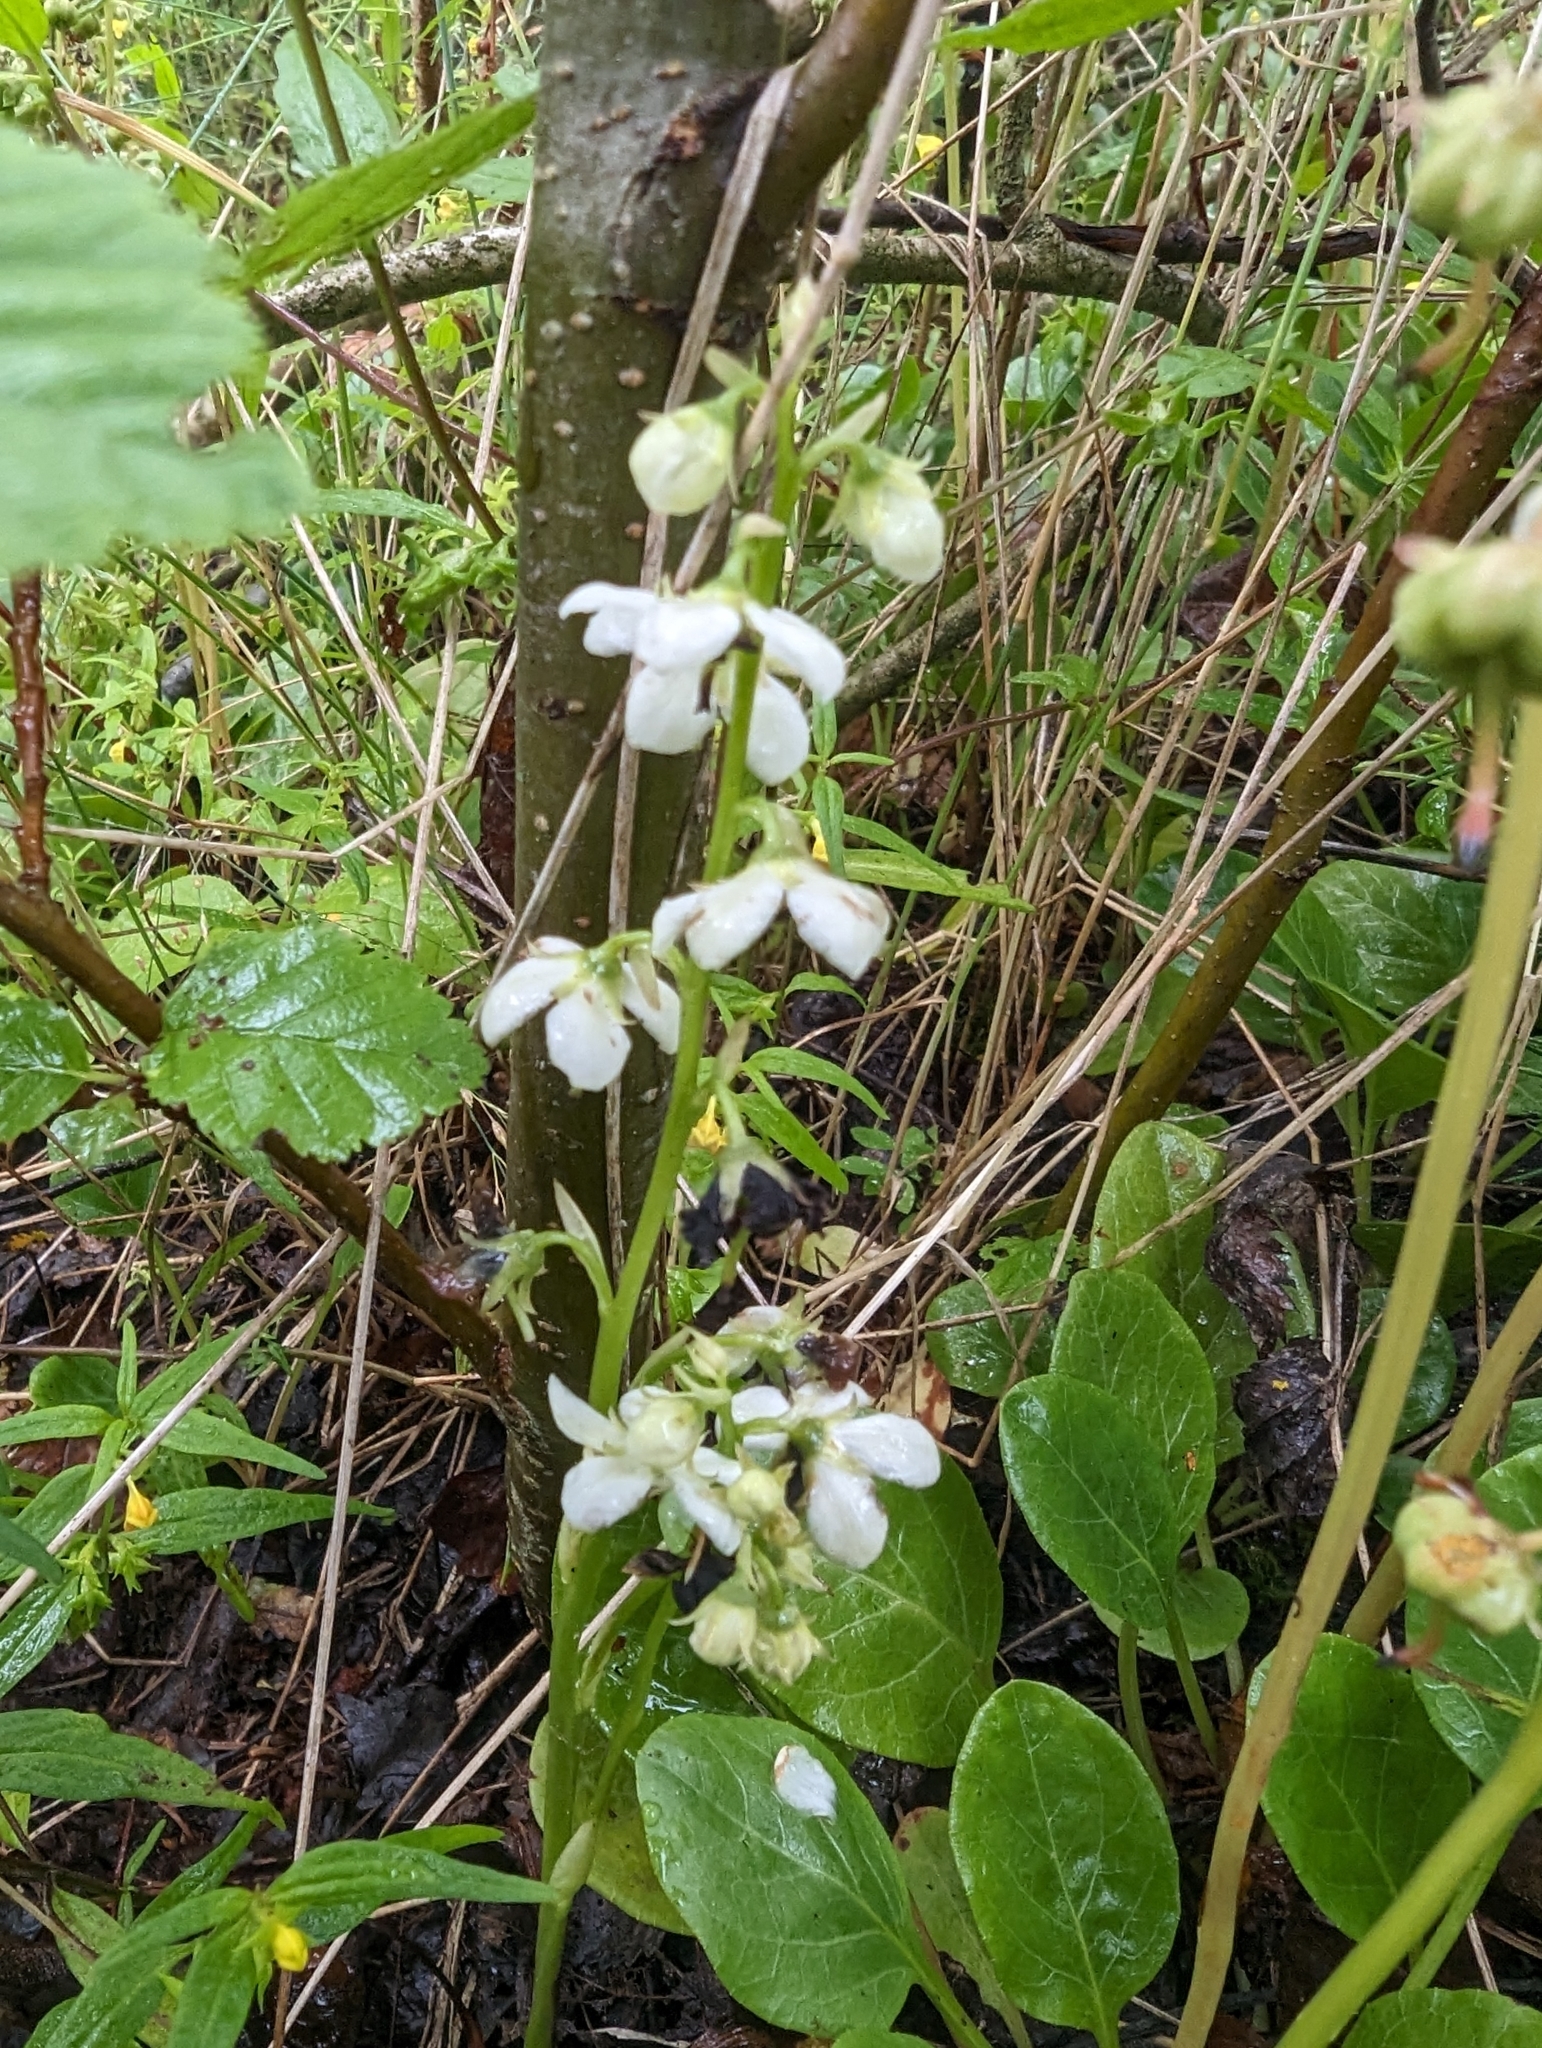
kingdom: Plantae
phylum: Tracheophyta
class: Magnoliopsida
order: Ericales
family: Ericaceae
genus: Pyrola
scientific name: Pyrola rotundifolia
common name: Round-leaved wintergreen
